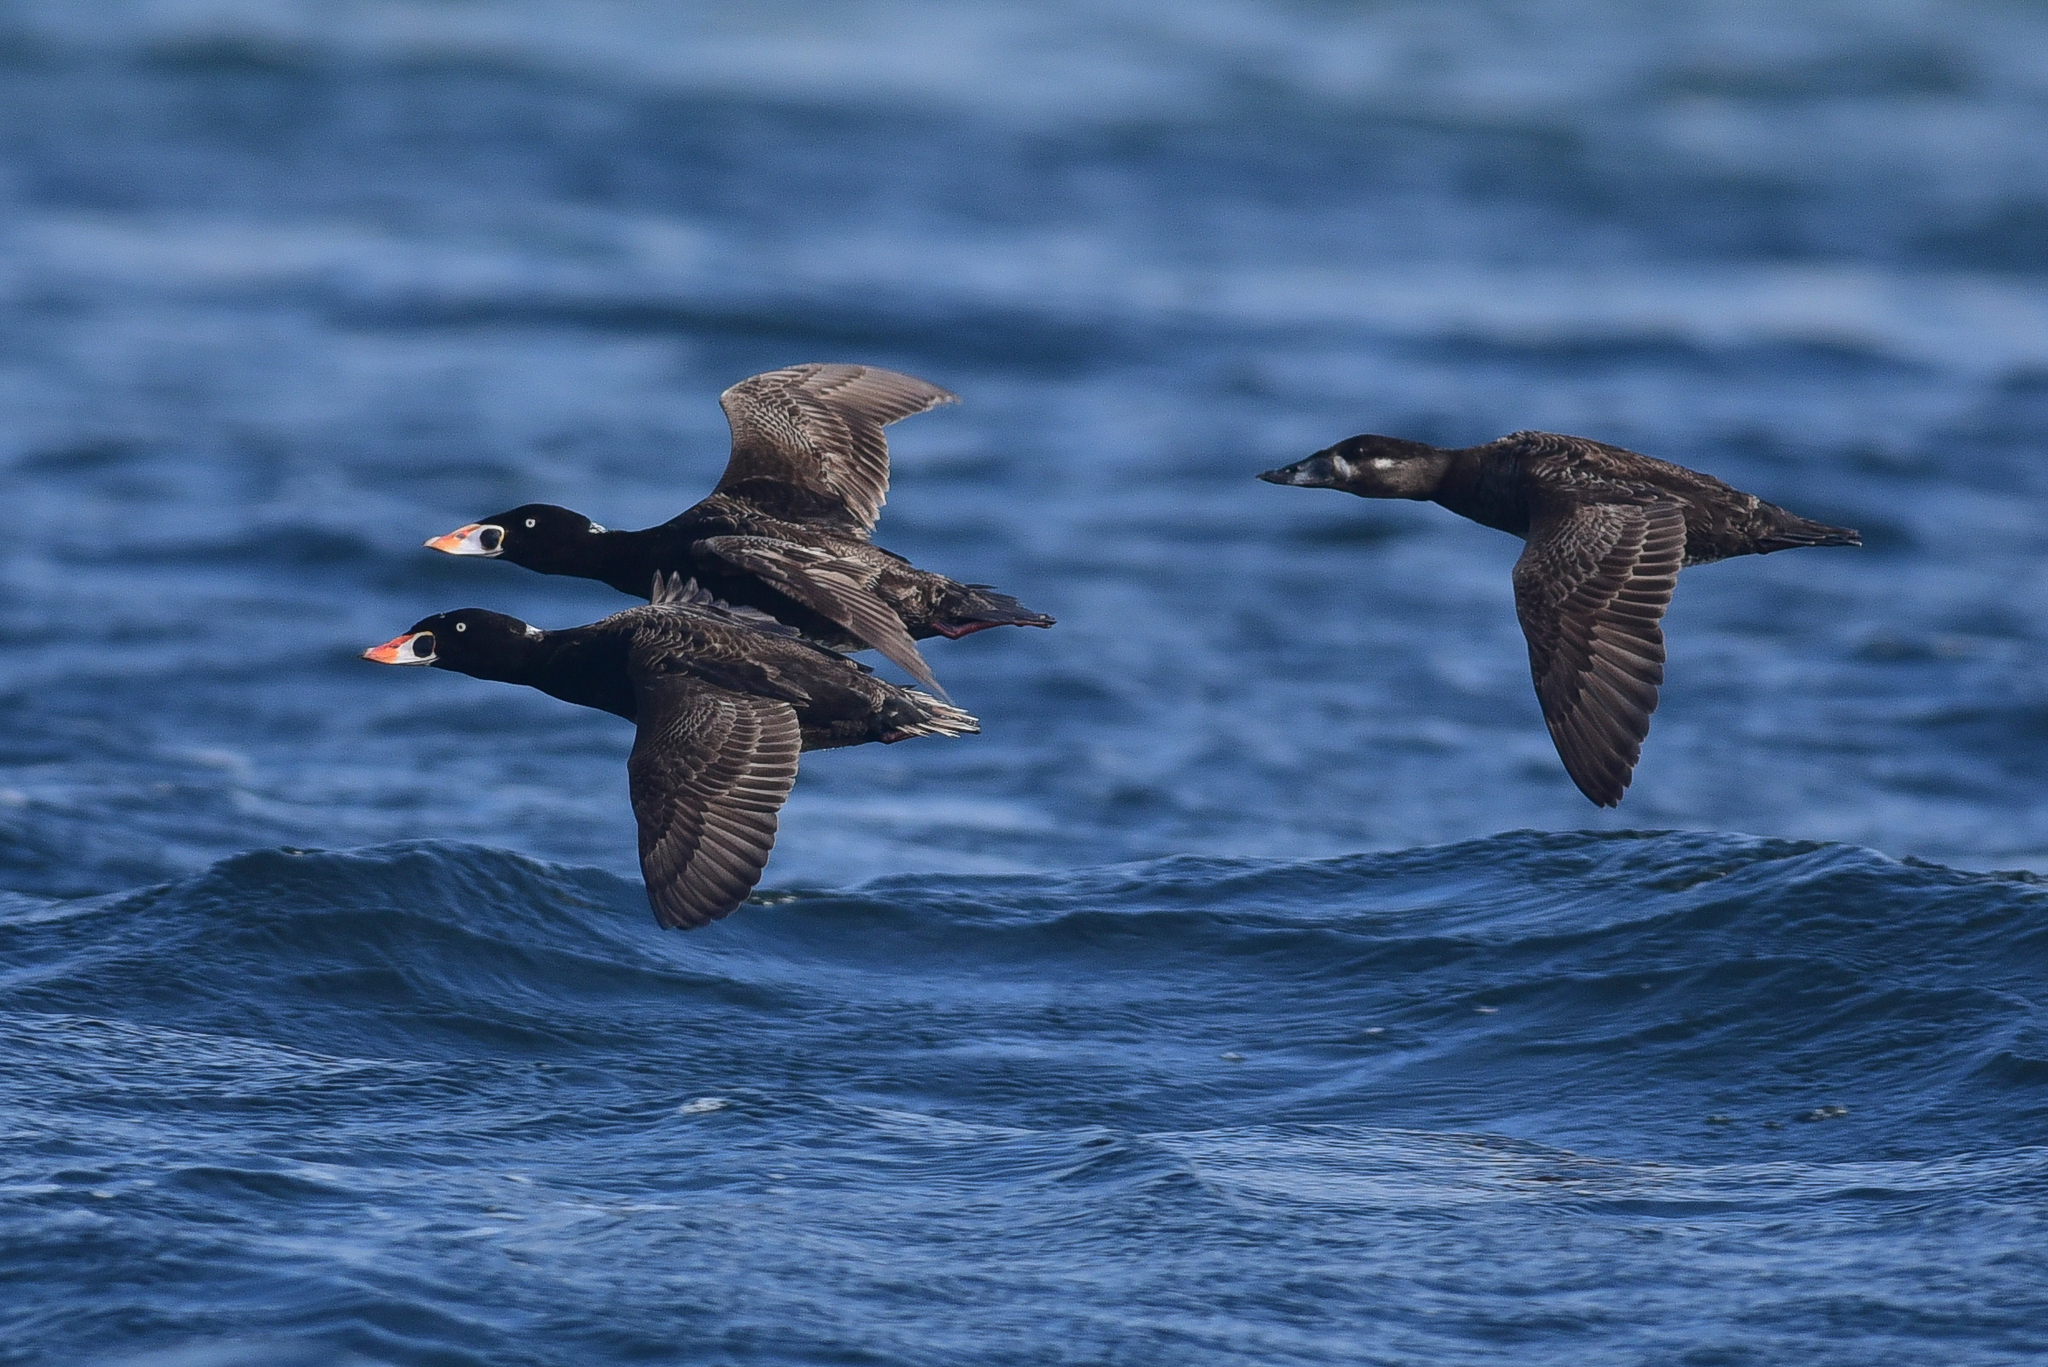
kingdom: Animalia
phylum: Chordata
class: Aves
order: Anseriformes
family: Anatidae
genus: Melanitta
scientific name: Melanitta perspicillata
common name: Surf scoter
